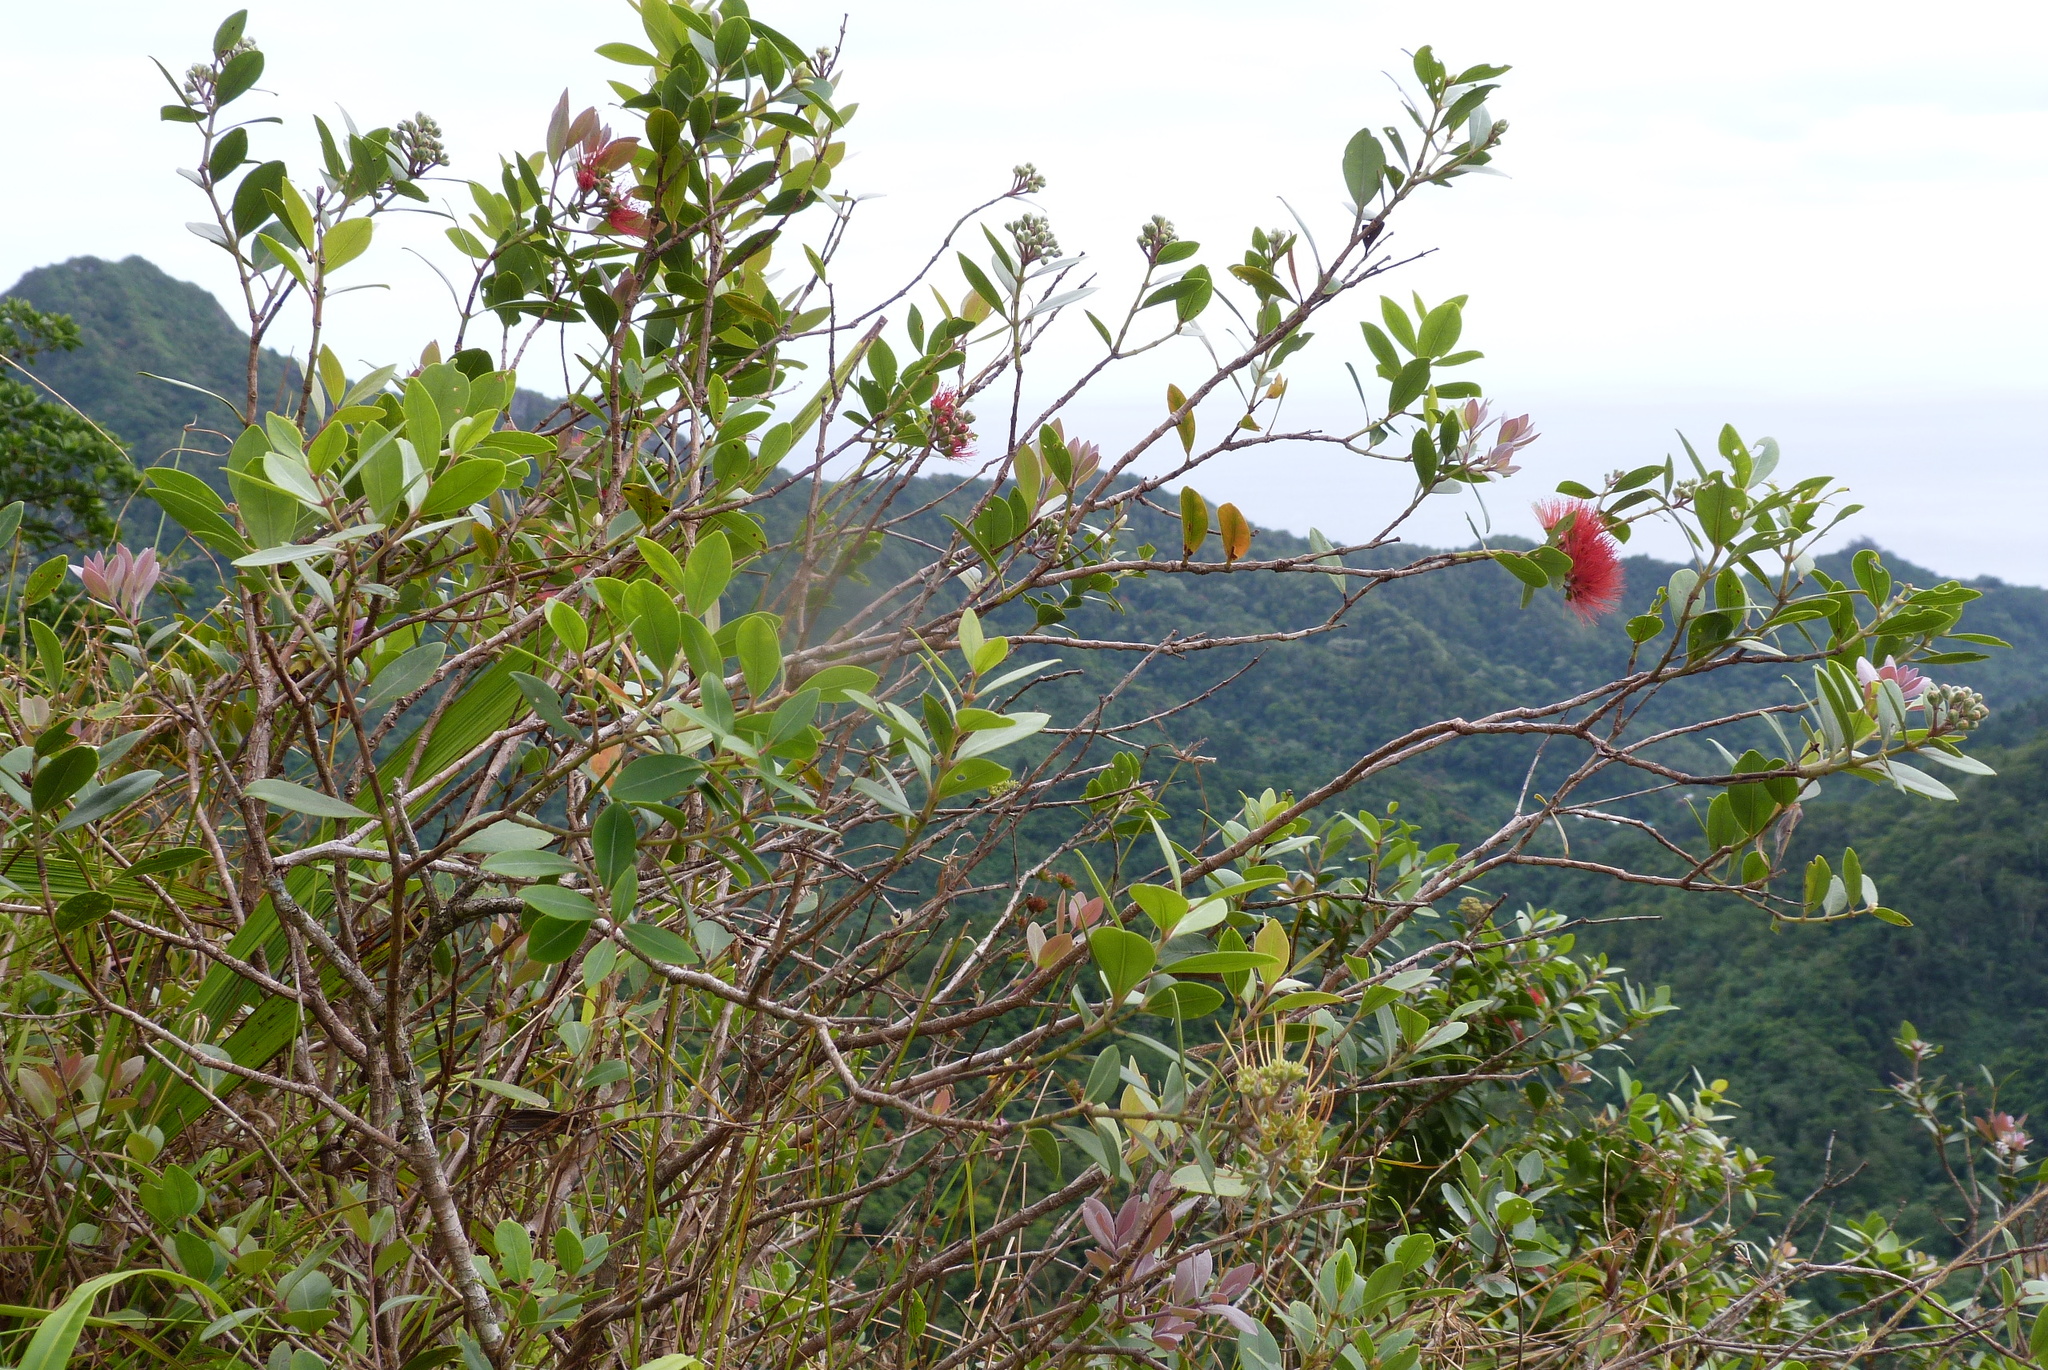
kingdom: Plantae
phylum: Tracheophyta
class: Magnoliopsida
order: Myrtales
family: Myrtaceae
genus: Metrosideros
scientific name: Metrosideros collina
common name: Vunga
